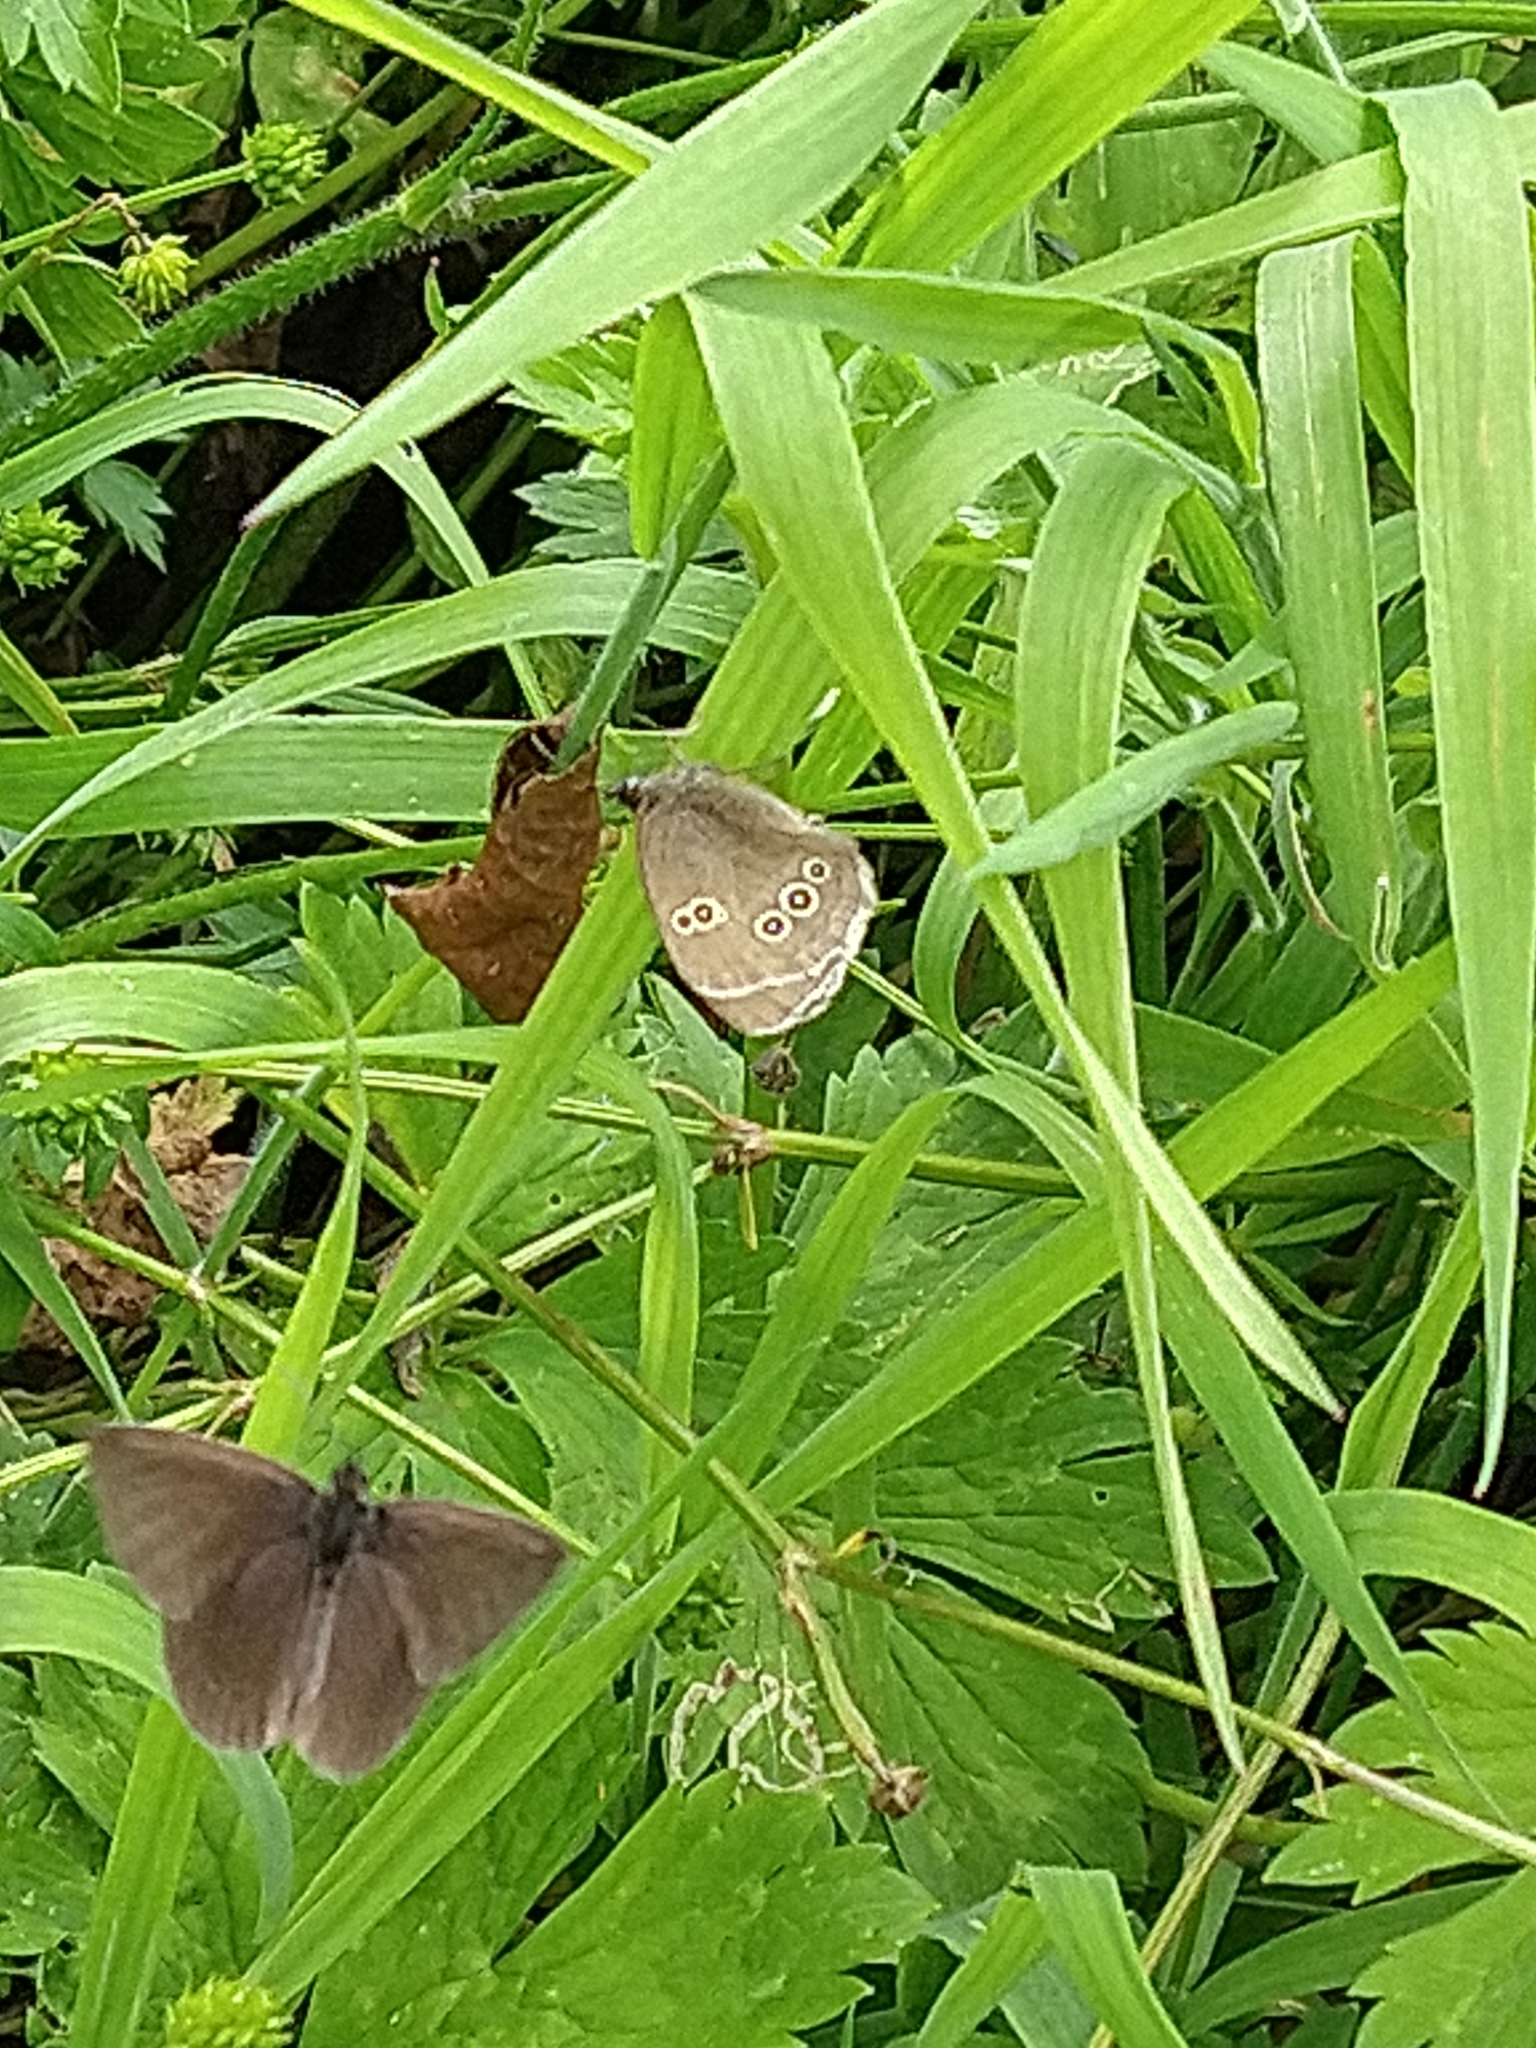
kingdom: Animalia
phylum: Arthropoda
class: Insecta
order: Lepidoptera
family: Nymphalidae
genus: Aphantopus
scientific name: Aphantopus hyperantus
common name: Ringlet
